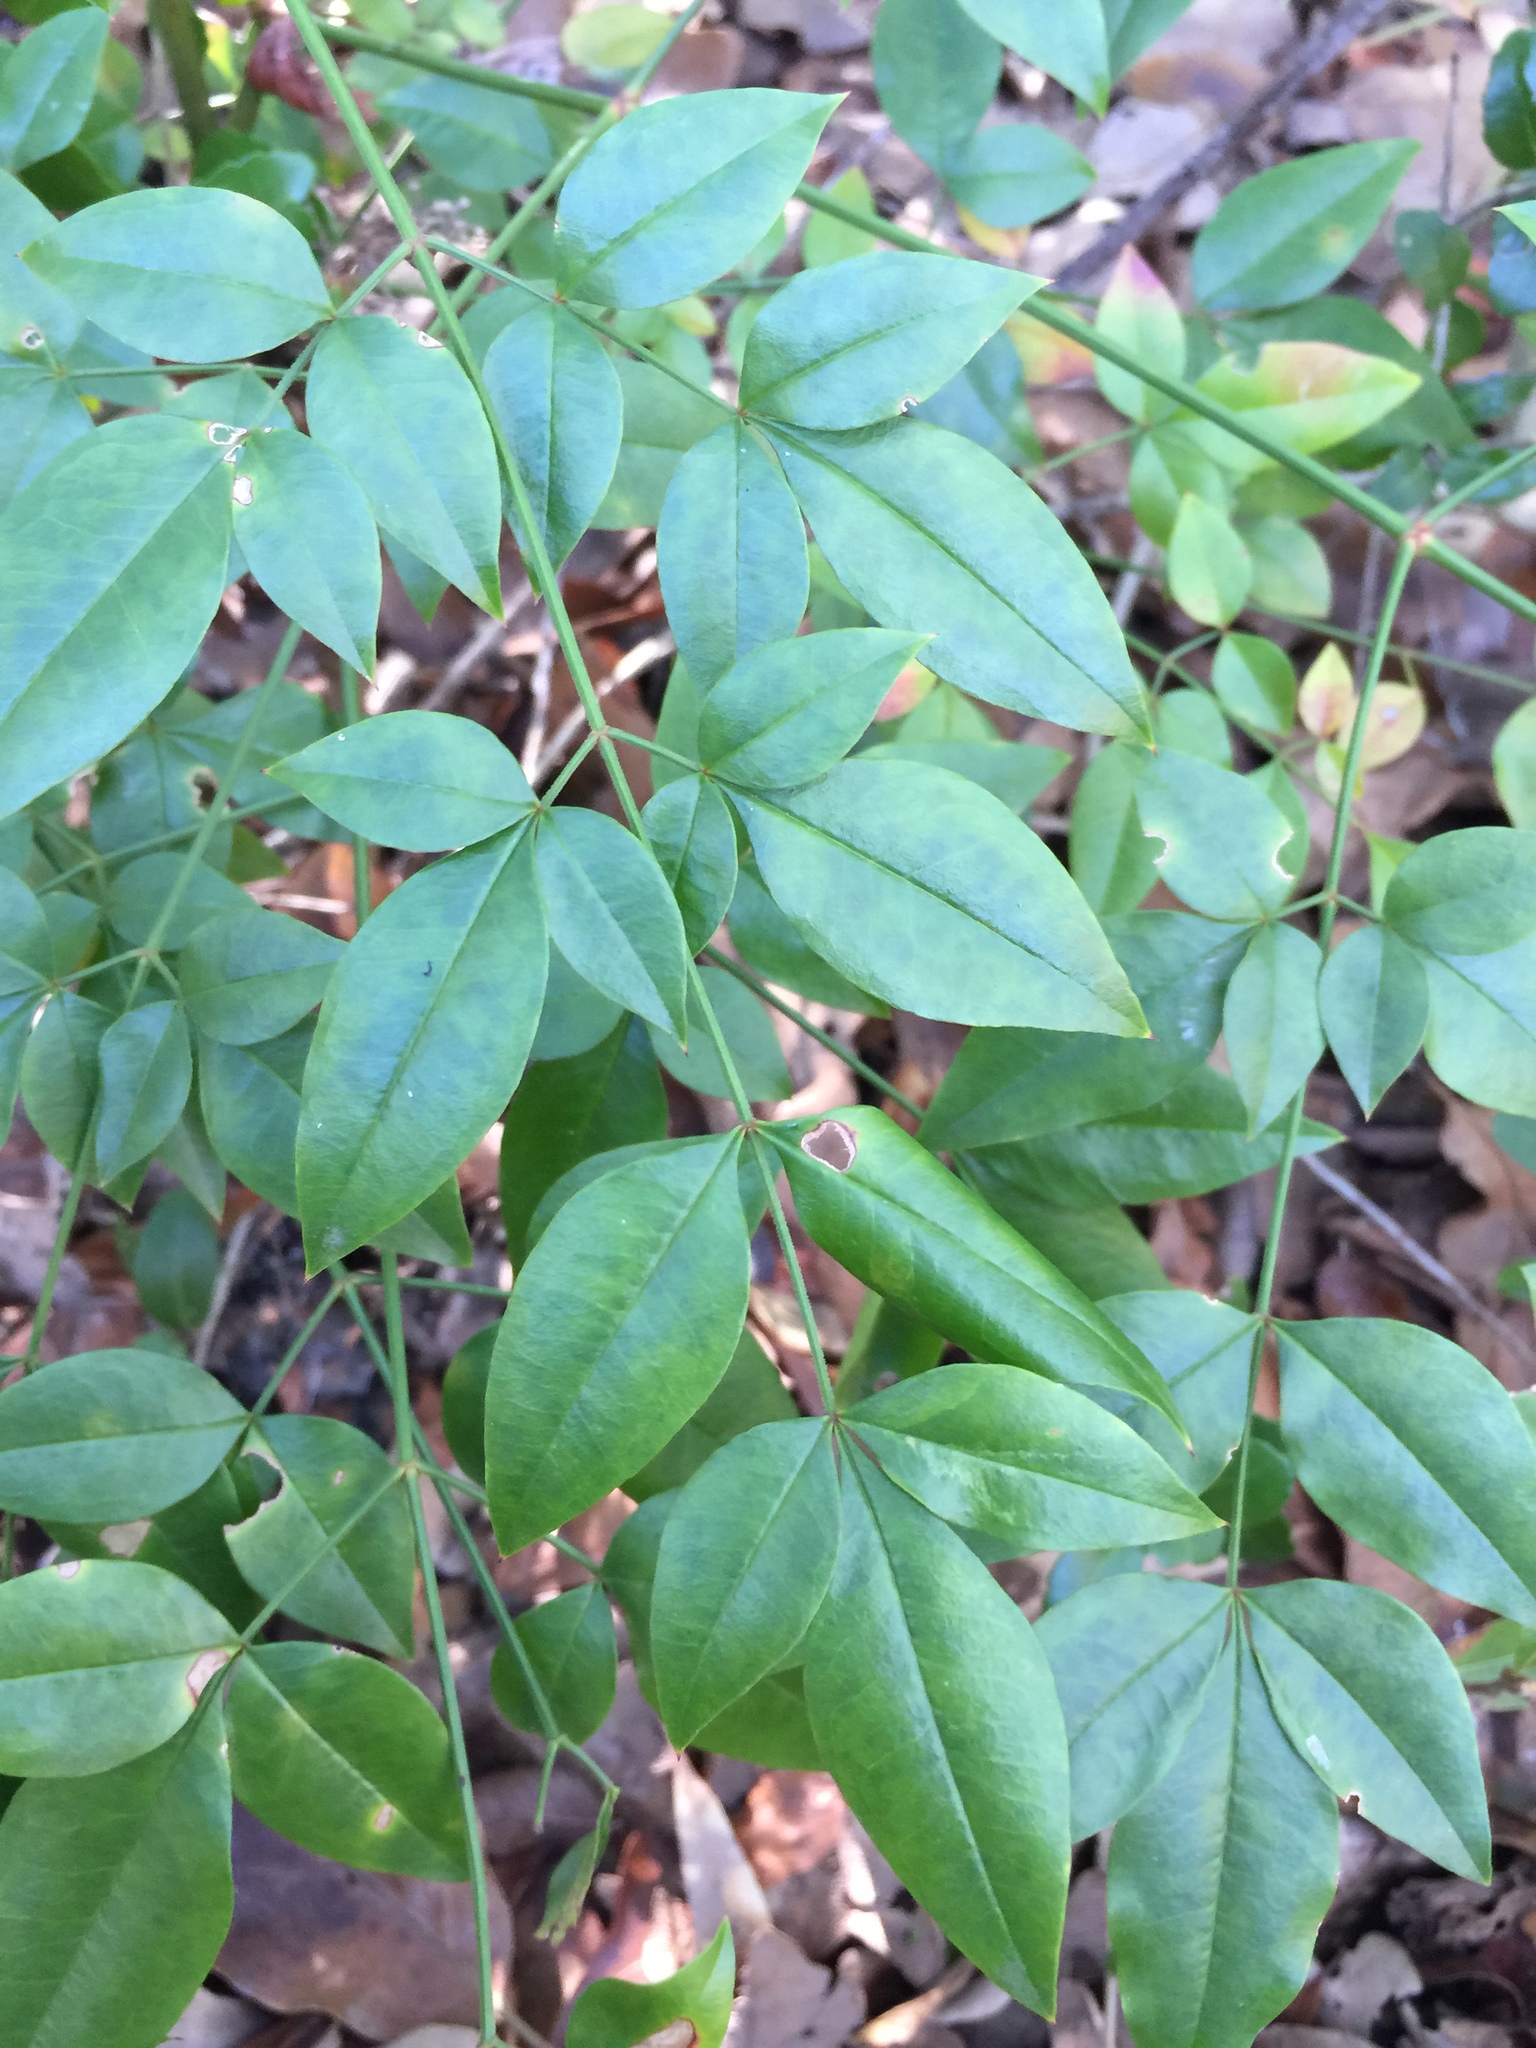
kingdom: Plantae
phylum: Tracheophyta
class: Magnoliopsida
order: Ranunculales
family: Berberidaceae
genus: Nandina
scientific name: Nandina domestica
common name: Sacred bamboo
